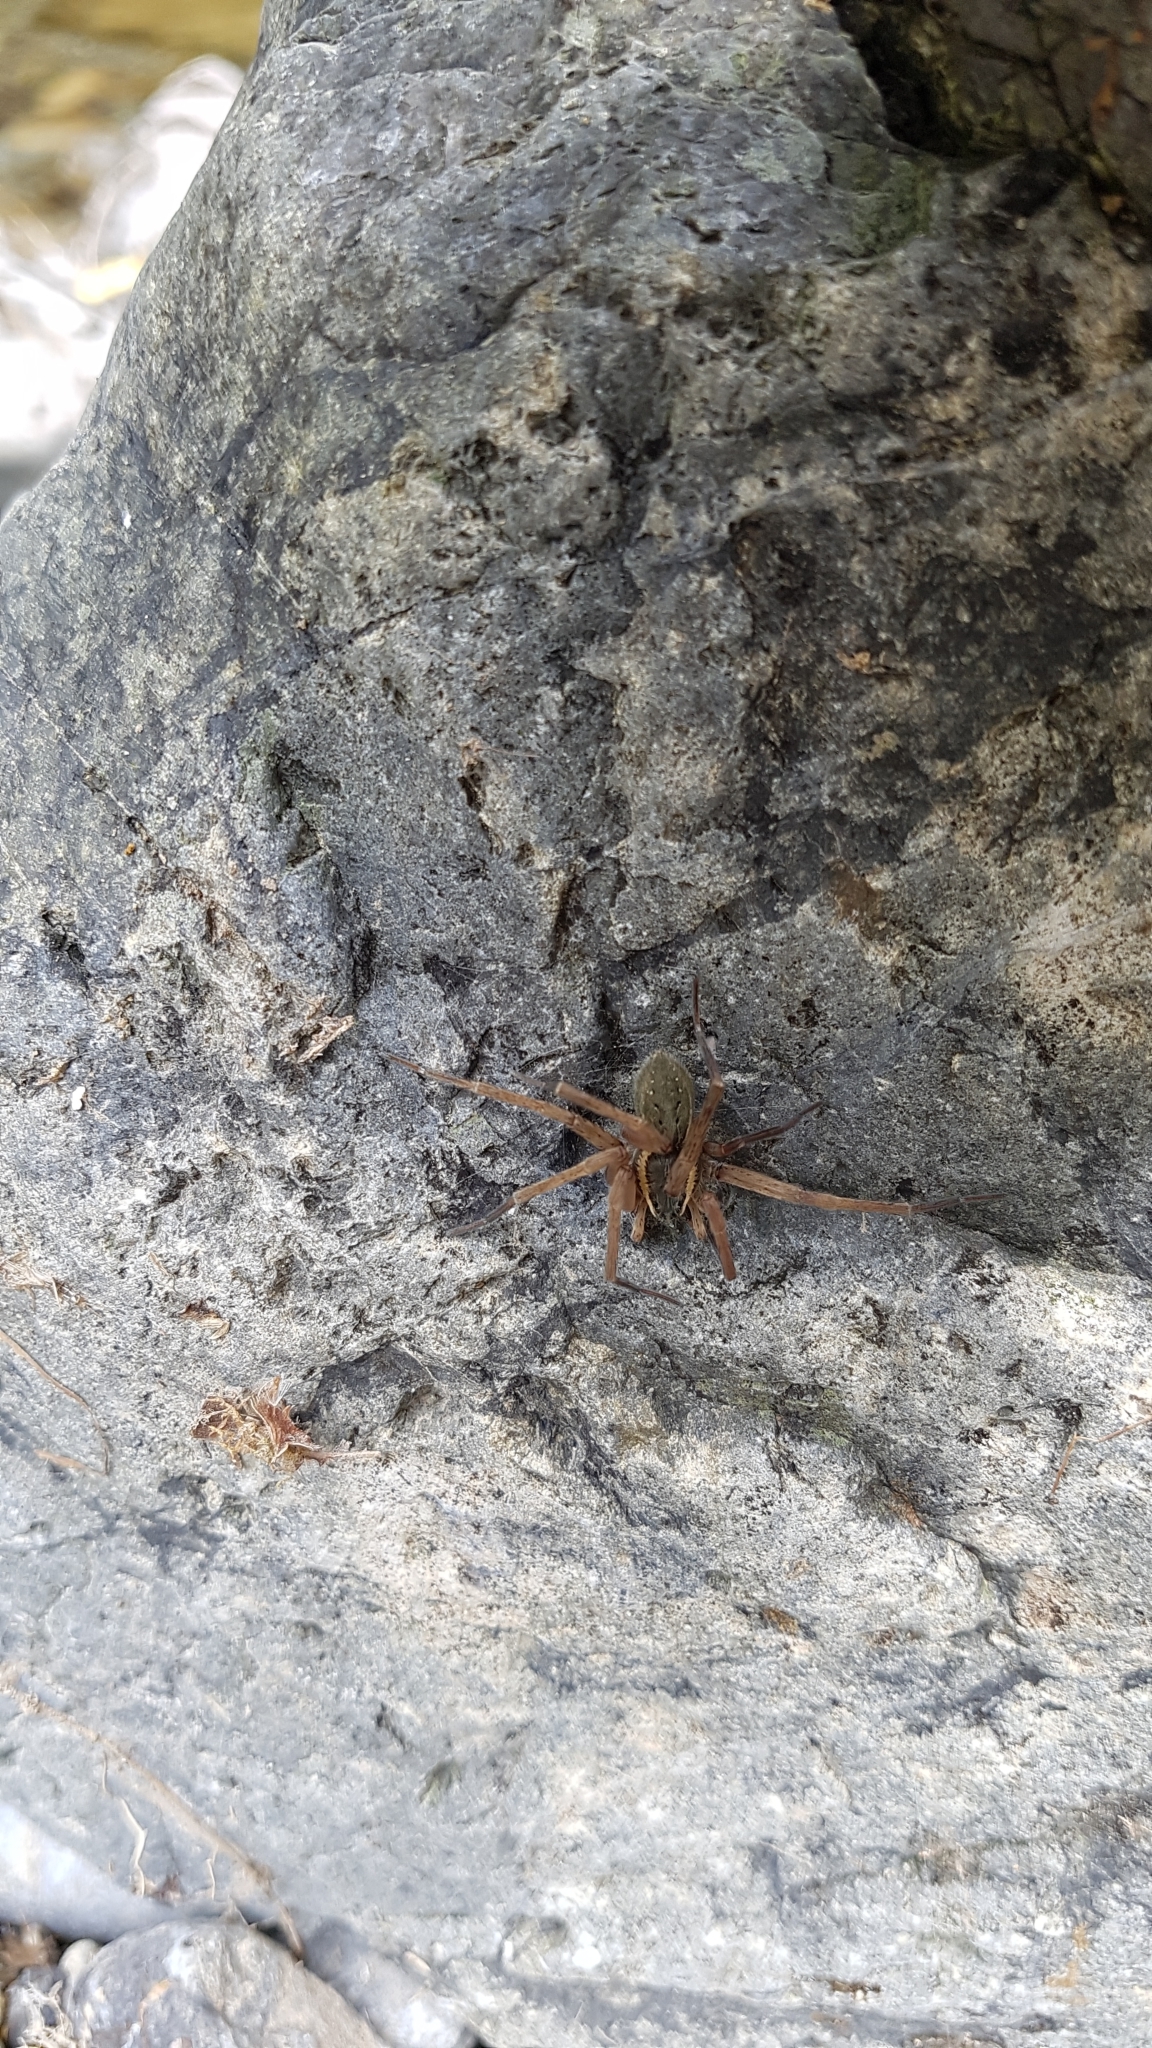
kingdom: Animalia
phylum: Arthropoda
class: Arachnida
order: Araneae
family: Pisauridae
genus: Dolomedes
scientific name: Dolomedes aquaticus
